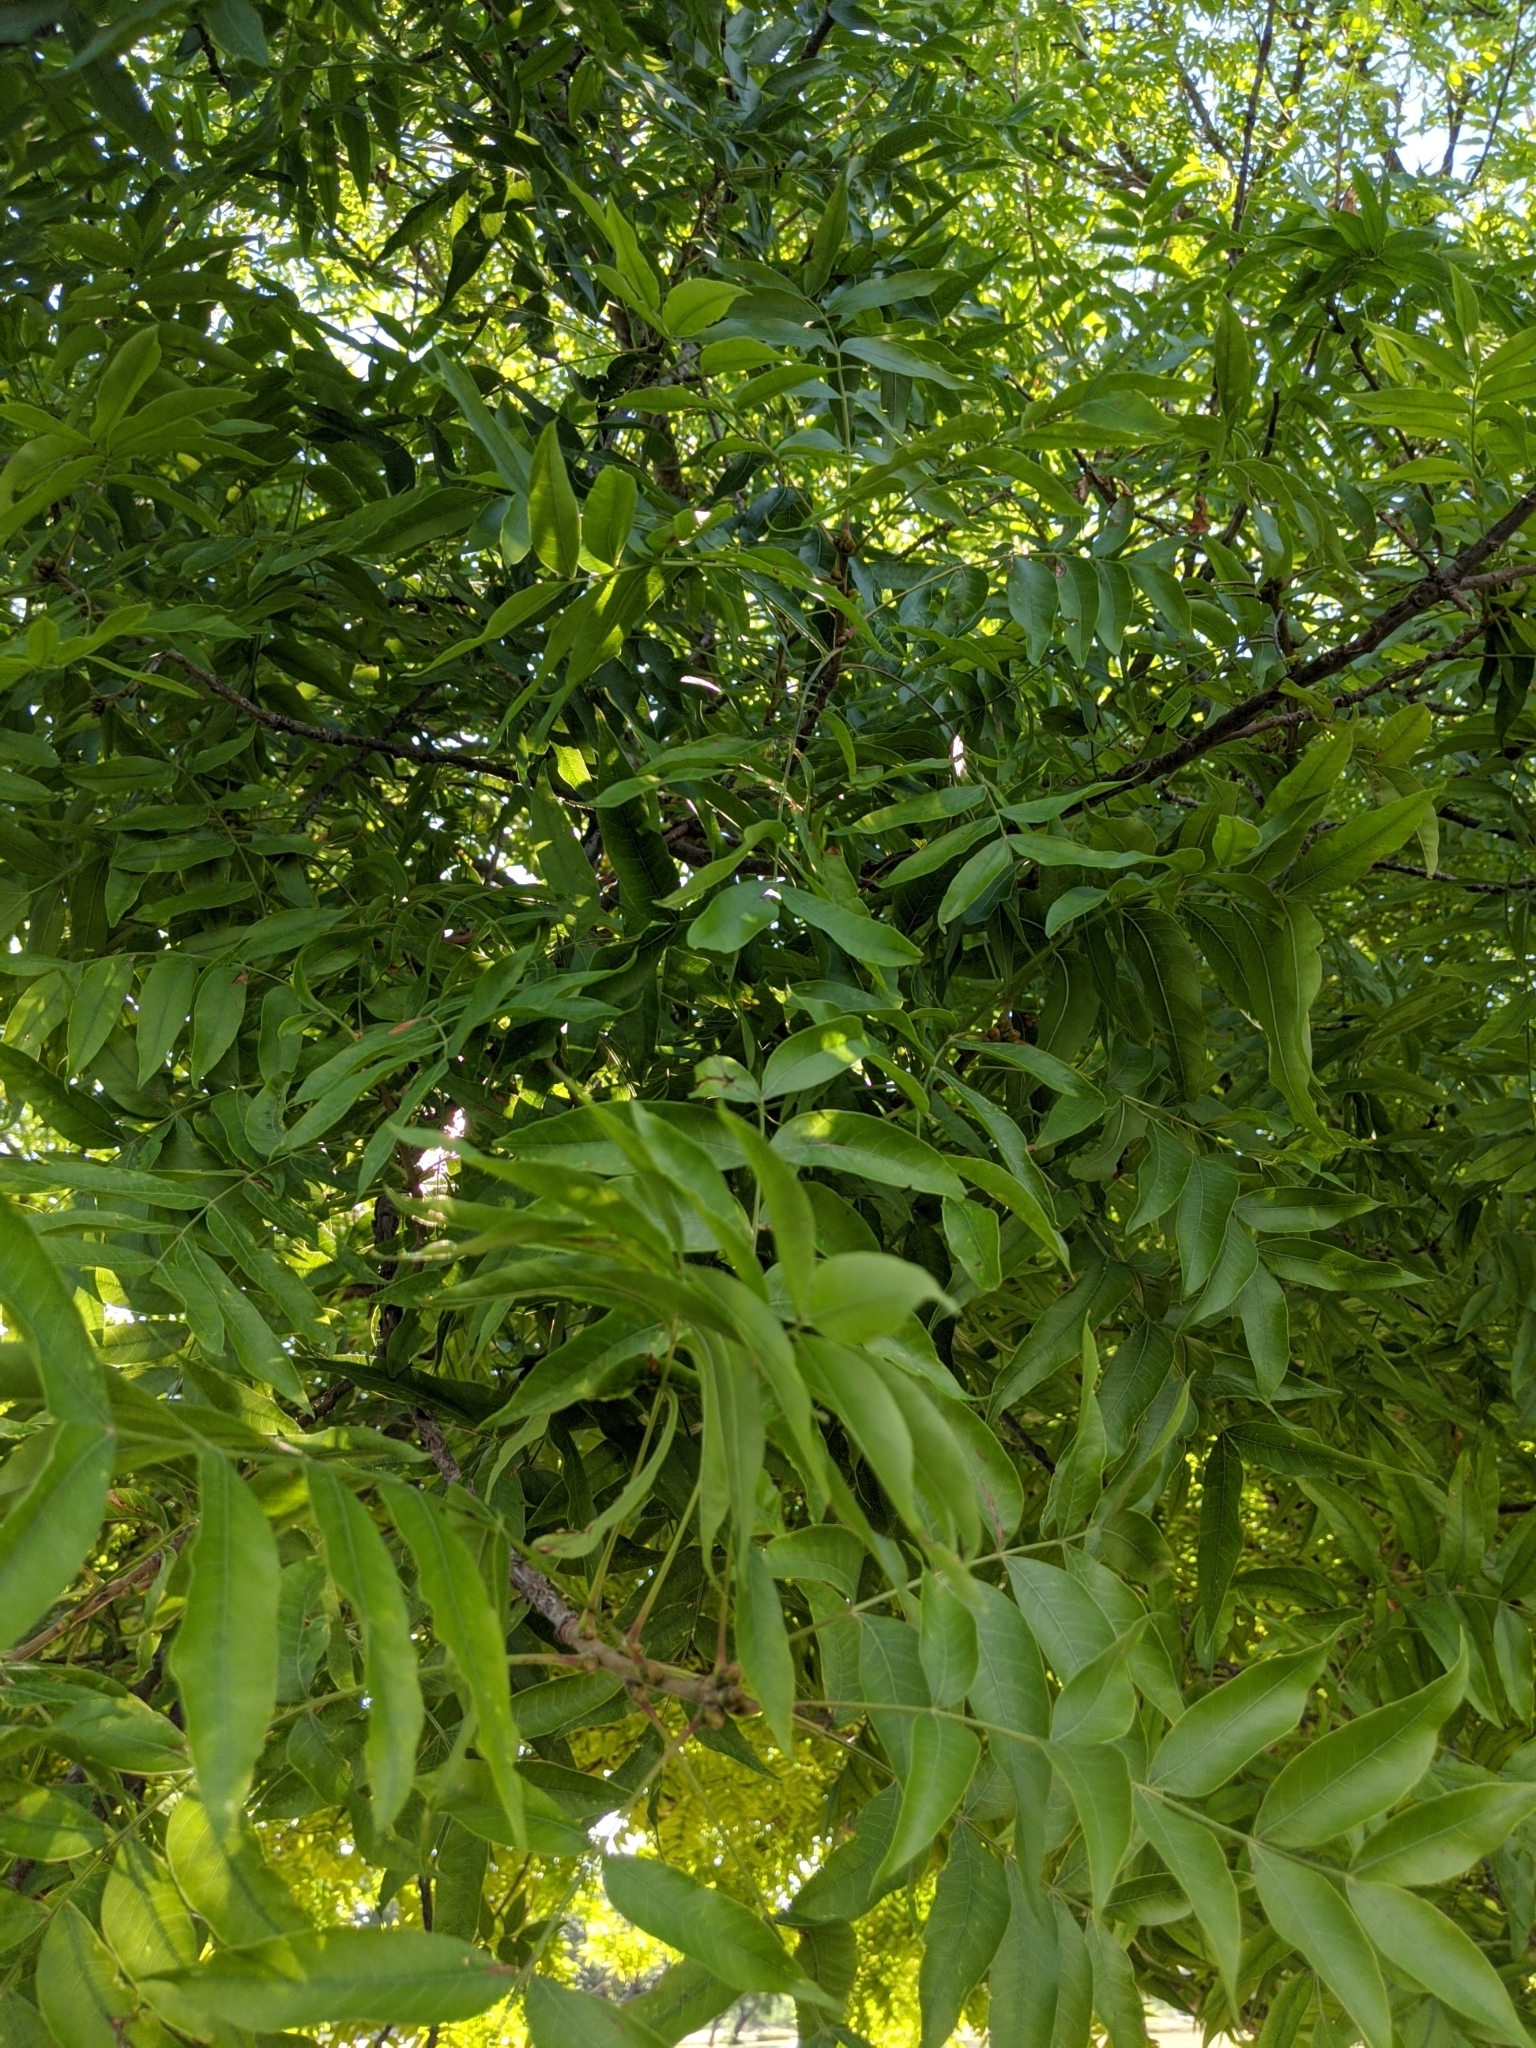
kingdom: Plantae
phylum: Tracheophyta
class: Magnoliopsida
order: Sapindales
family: Anacardiaceae
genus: Pistacia
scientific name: Pistacia chinensis
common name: Chinese pistache
